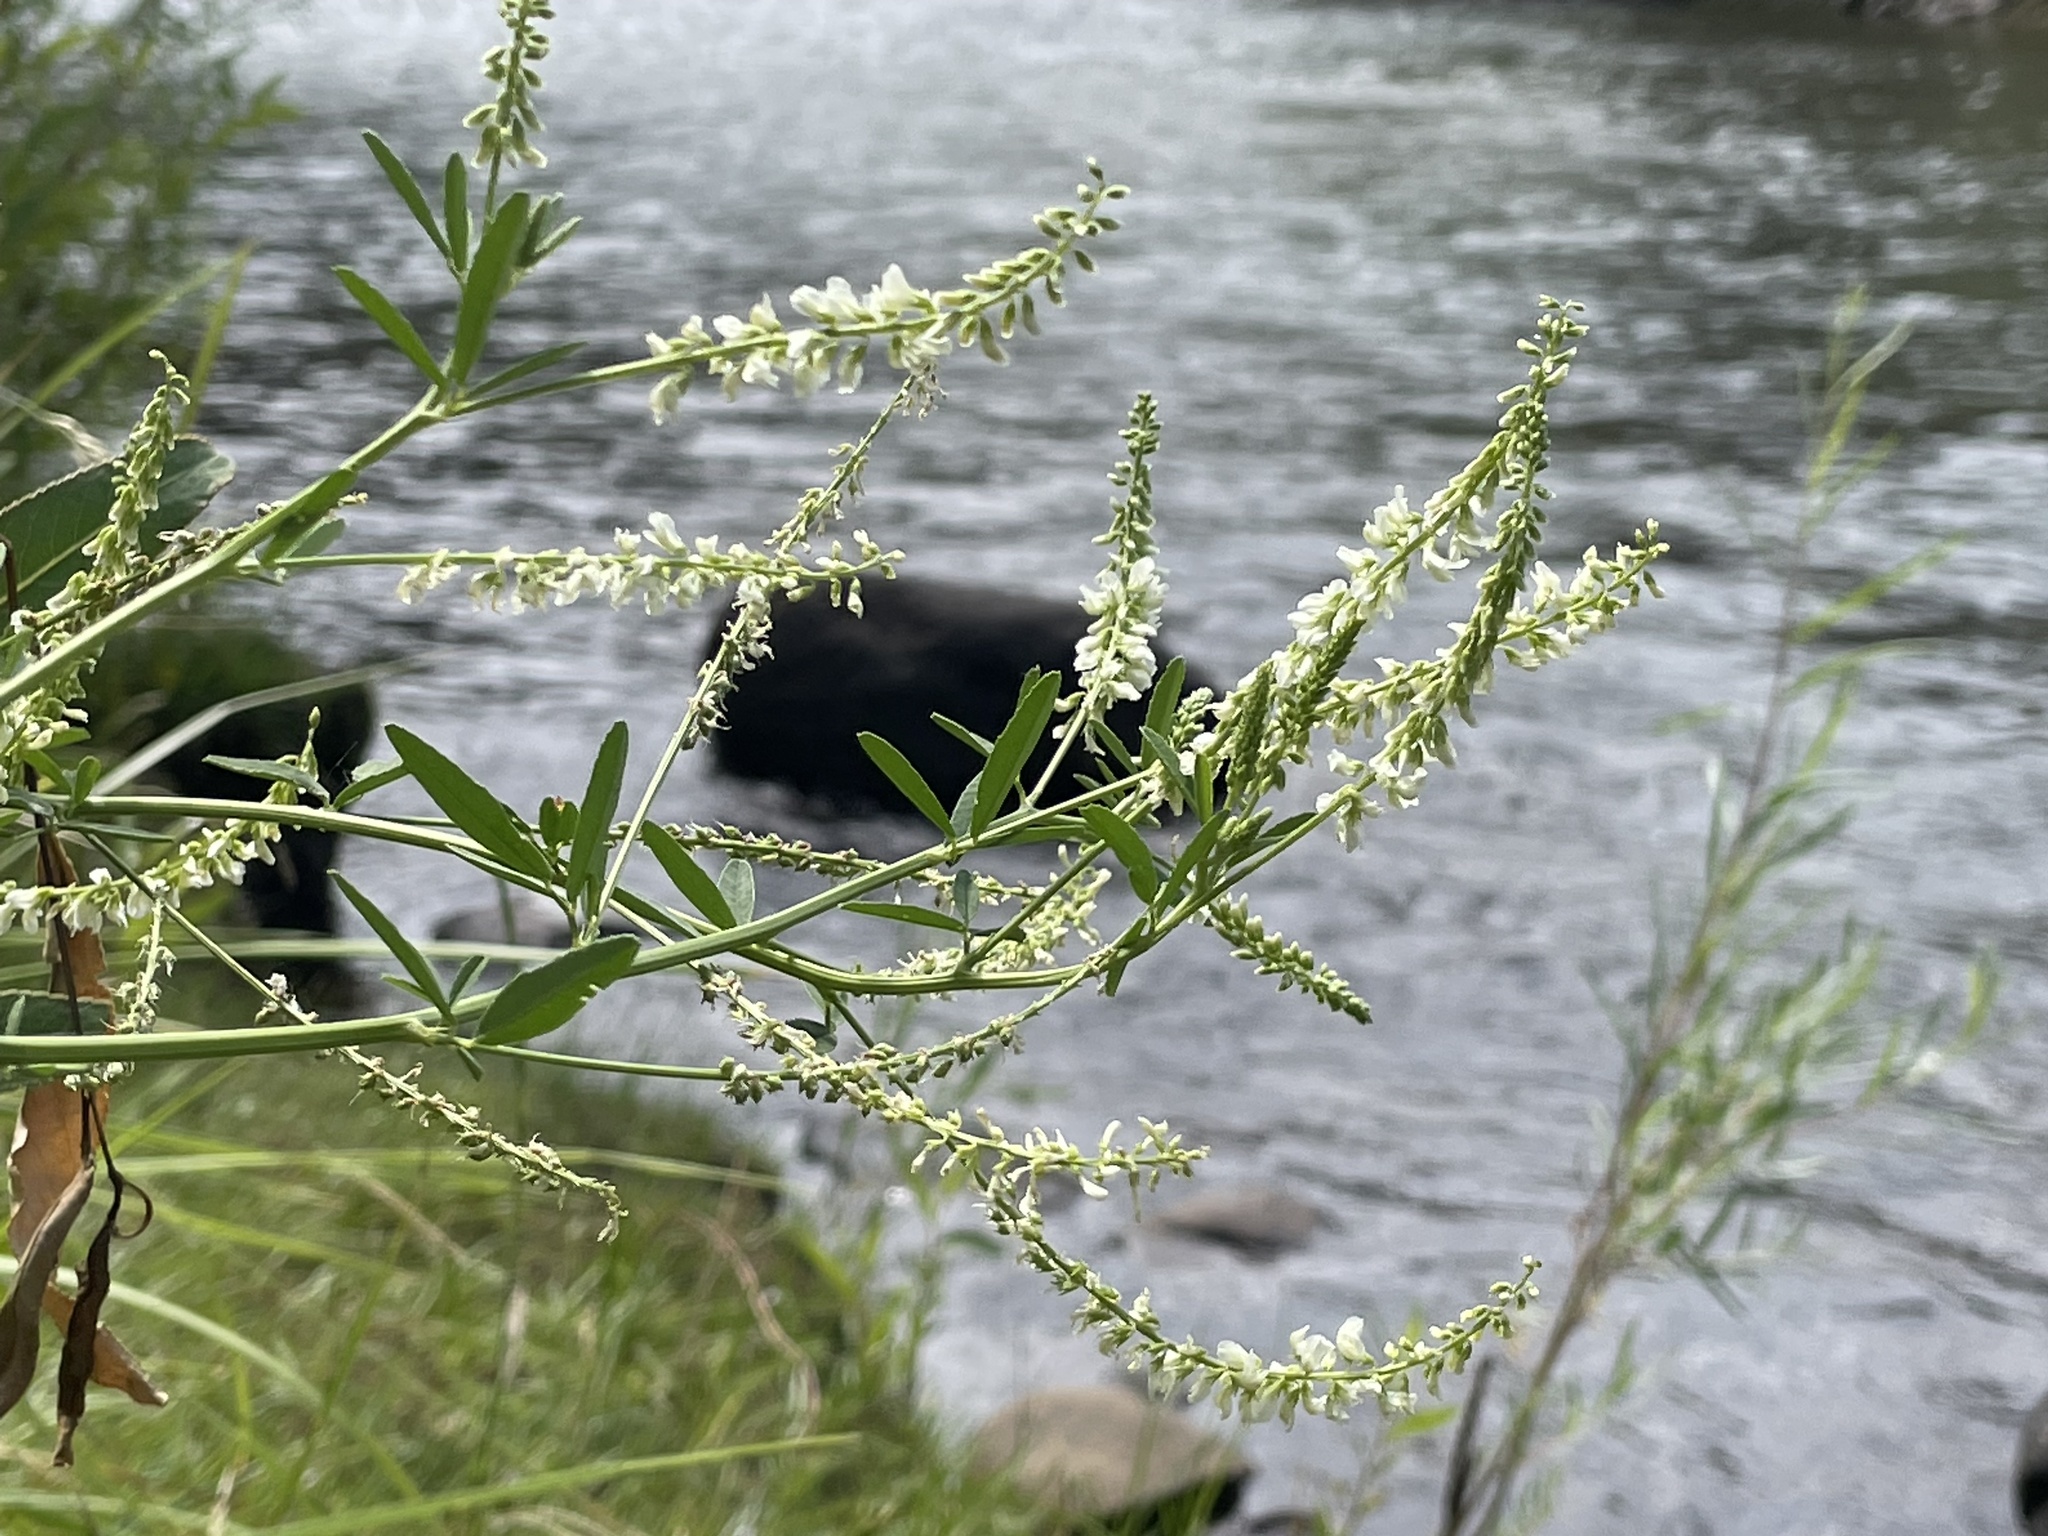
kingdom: Plantae
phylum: Tracheophyta
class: Magnoliopsida
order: Fabales
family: Fabaceae
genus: Melilotus
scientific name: Melilotus albus
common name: White melilot
